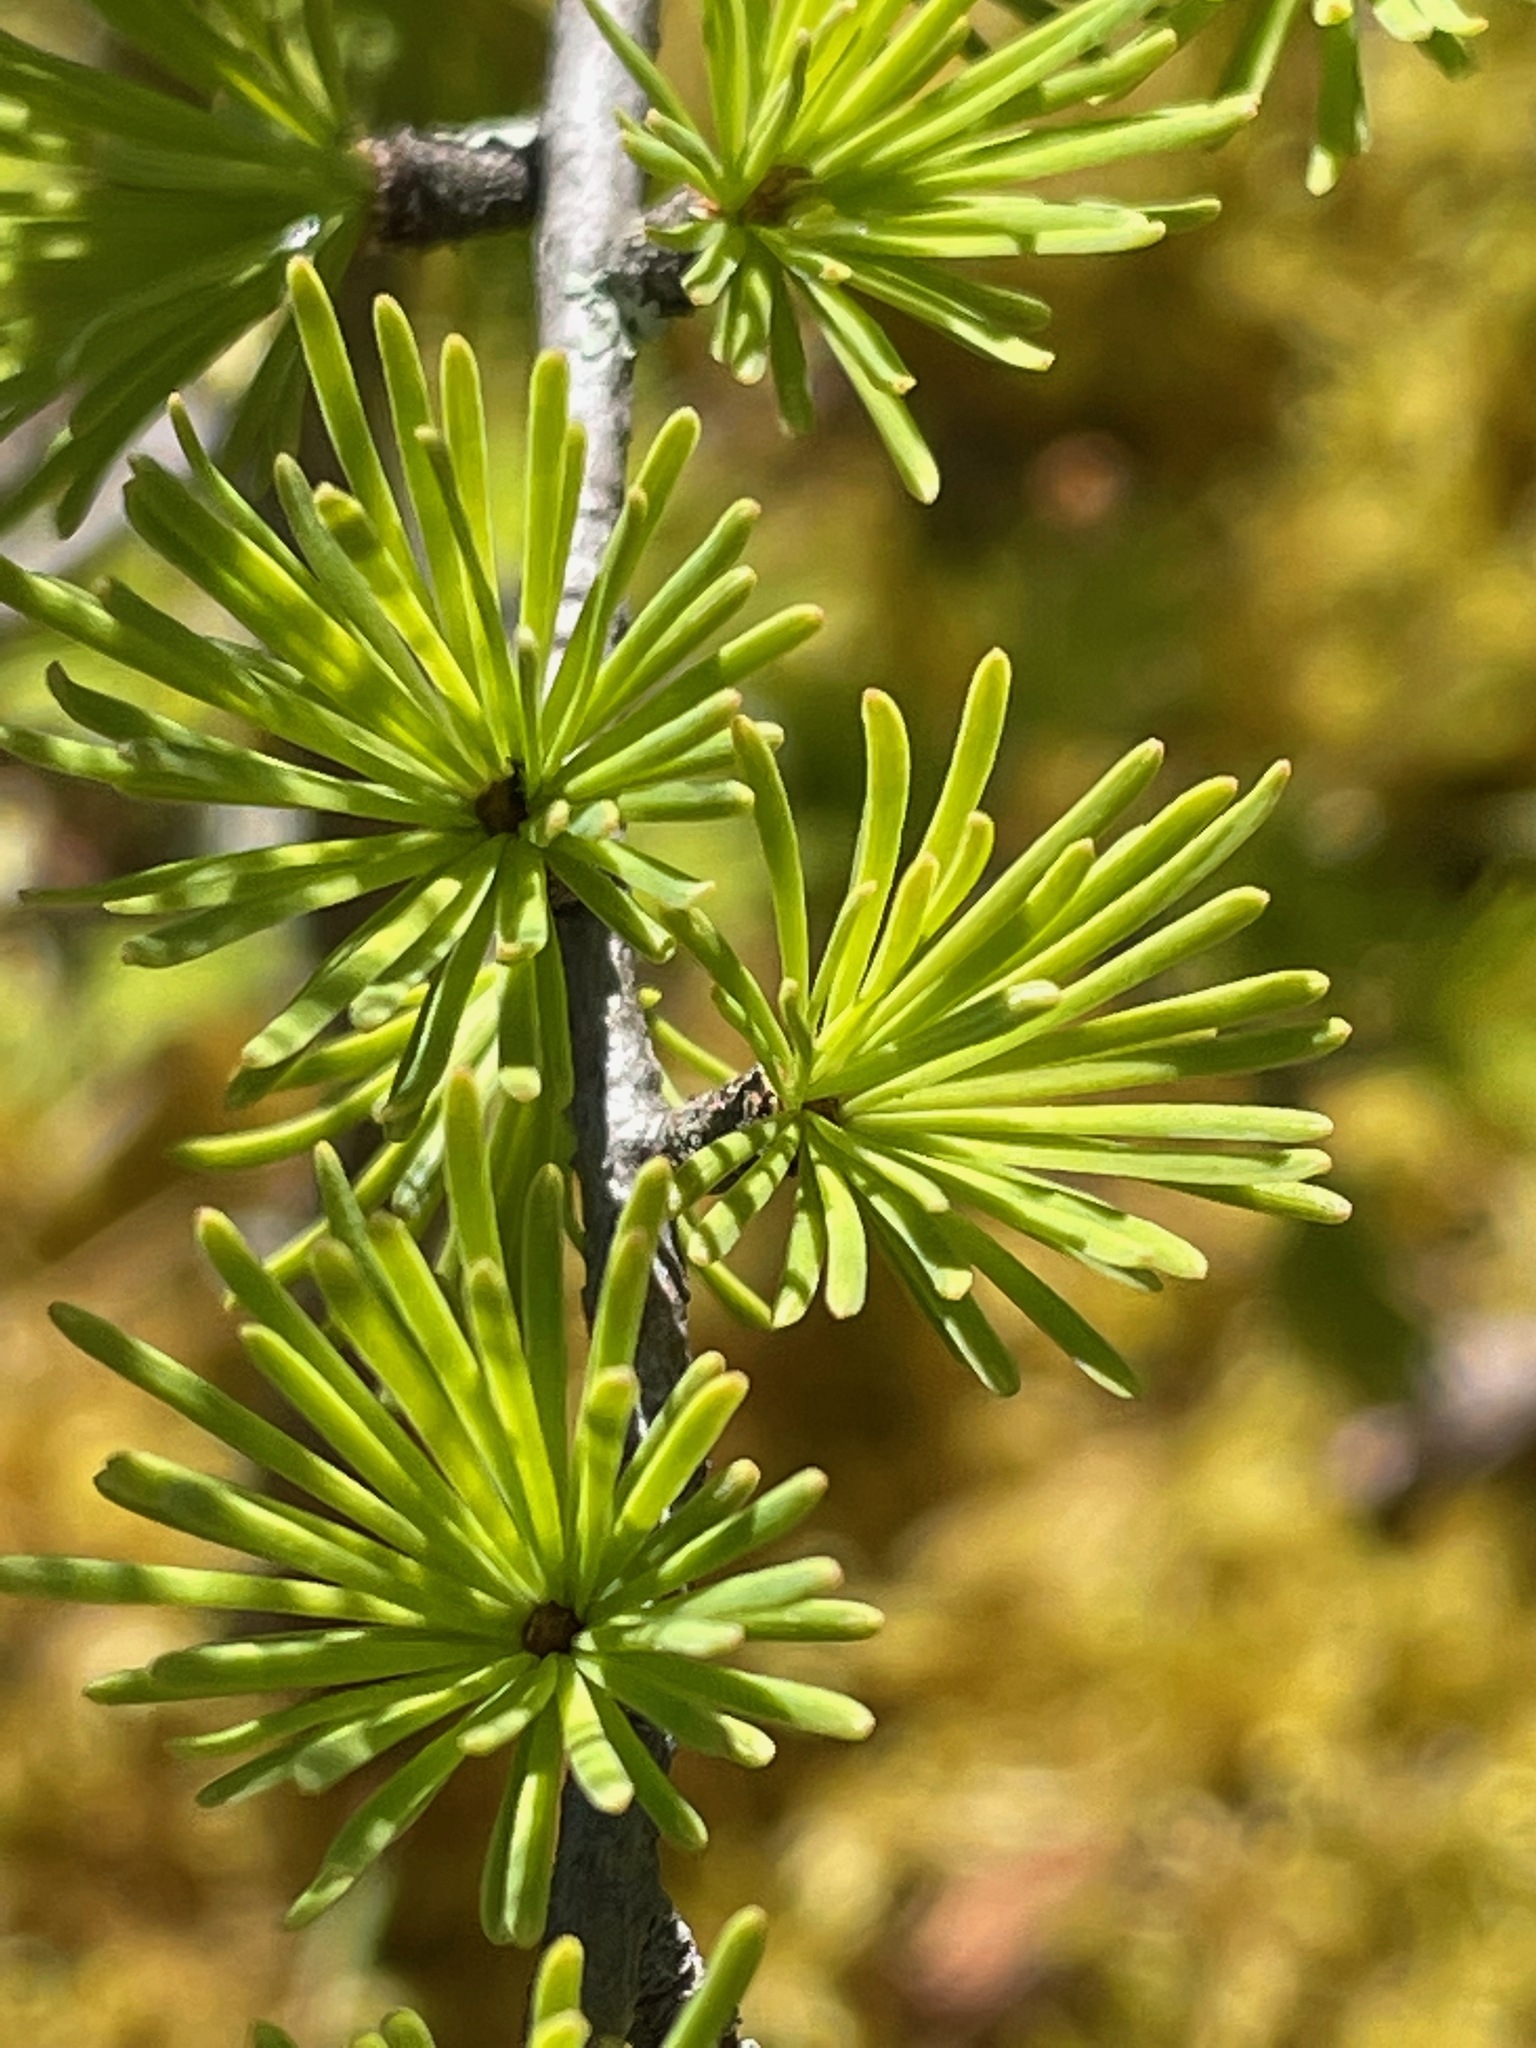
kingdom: Plantae
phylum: Tracheophyta
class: Pinopsida
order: Pinales
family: Pinaceae
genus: Larix
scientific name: Larix laricina
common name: American larch
